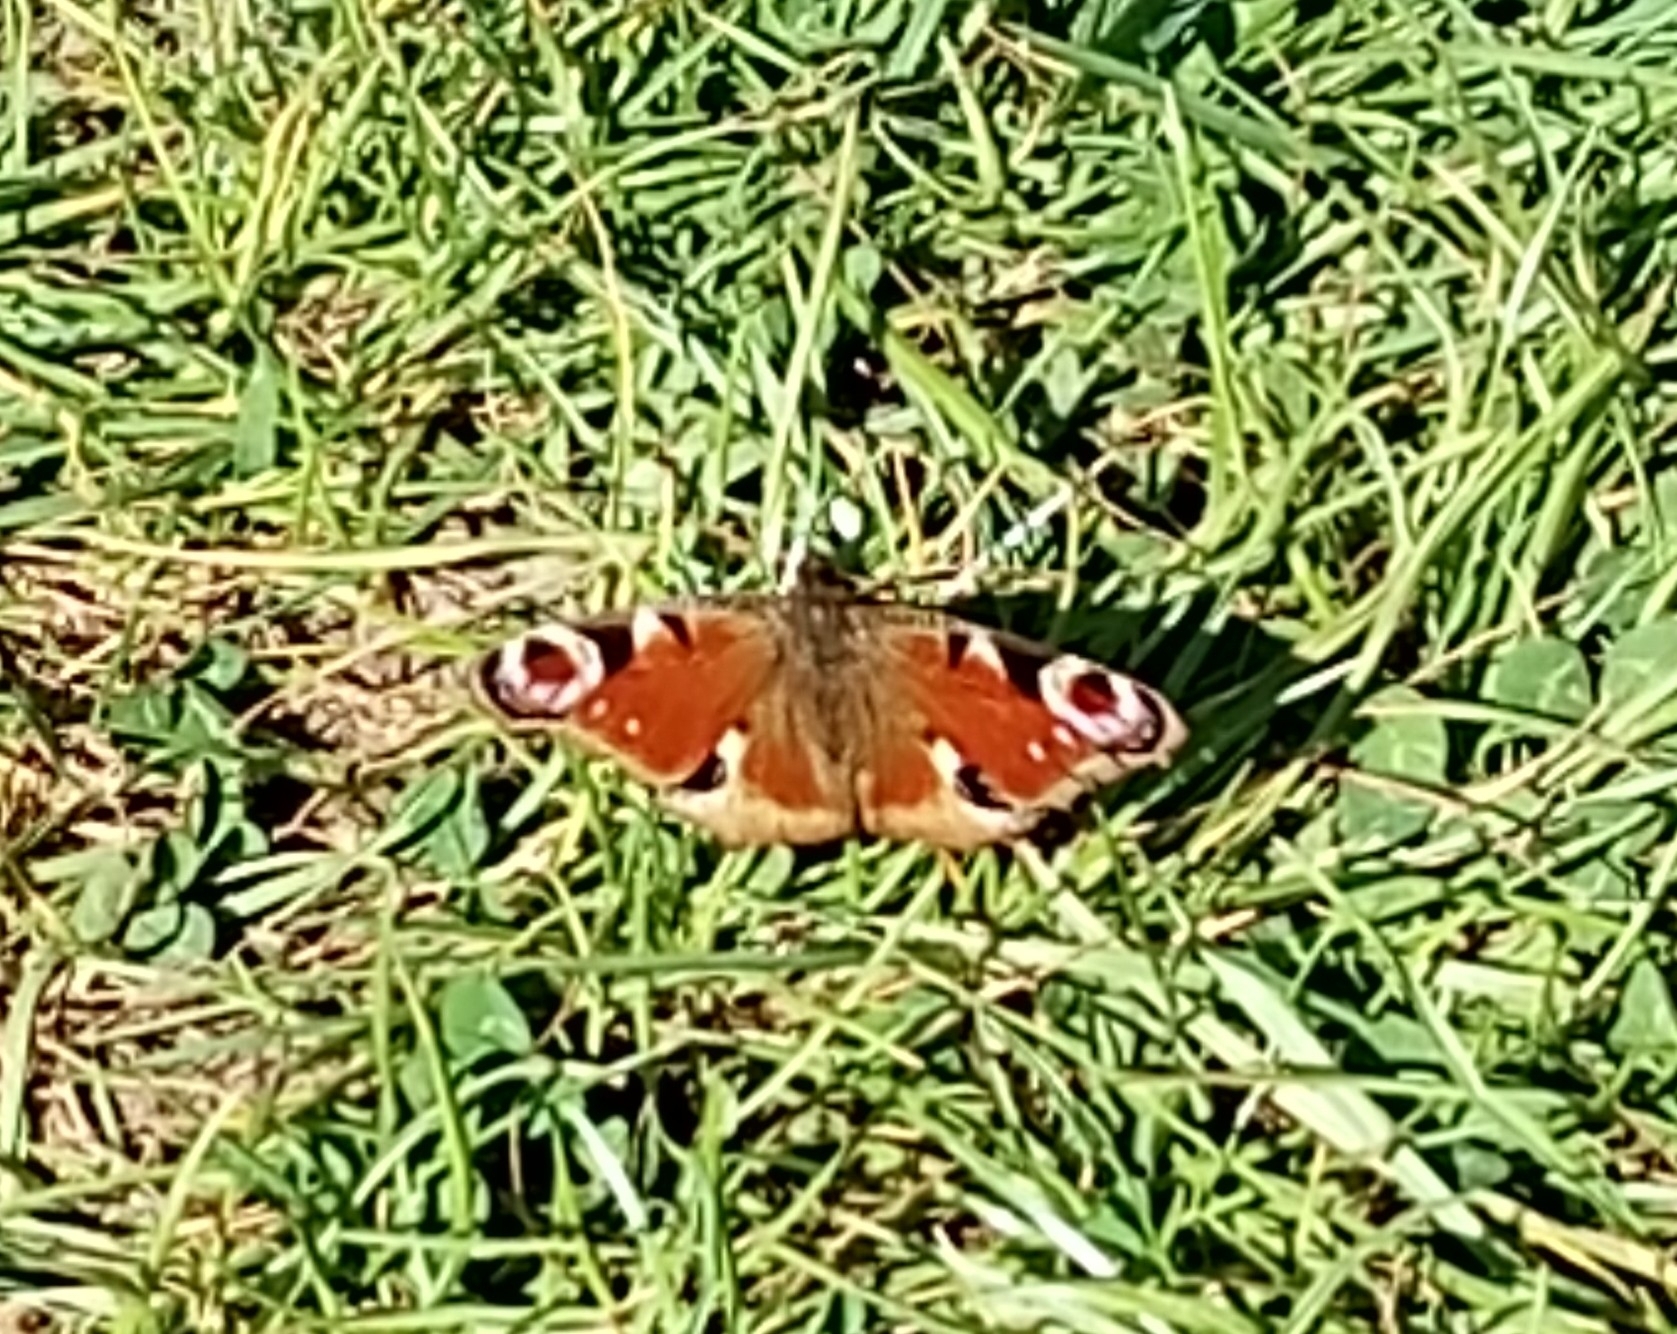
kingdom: Animalia
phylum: Arthropoda
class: Insecta
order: Lepidoptera
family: Nymphalidae
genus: Aglais
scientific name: Aglais io
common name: Peacock
